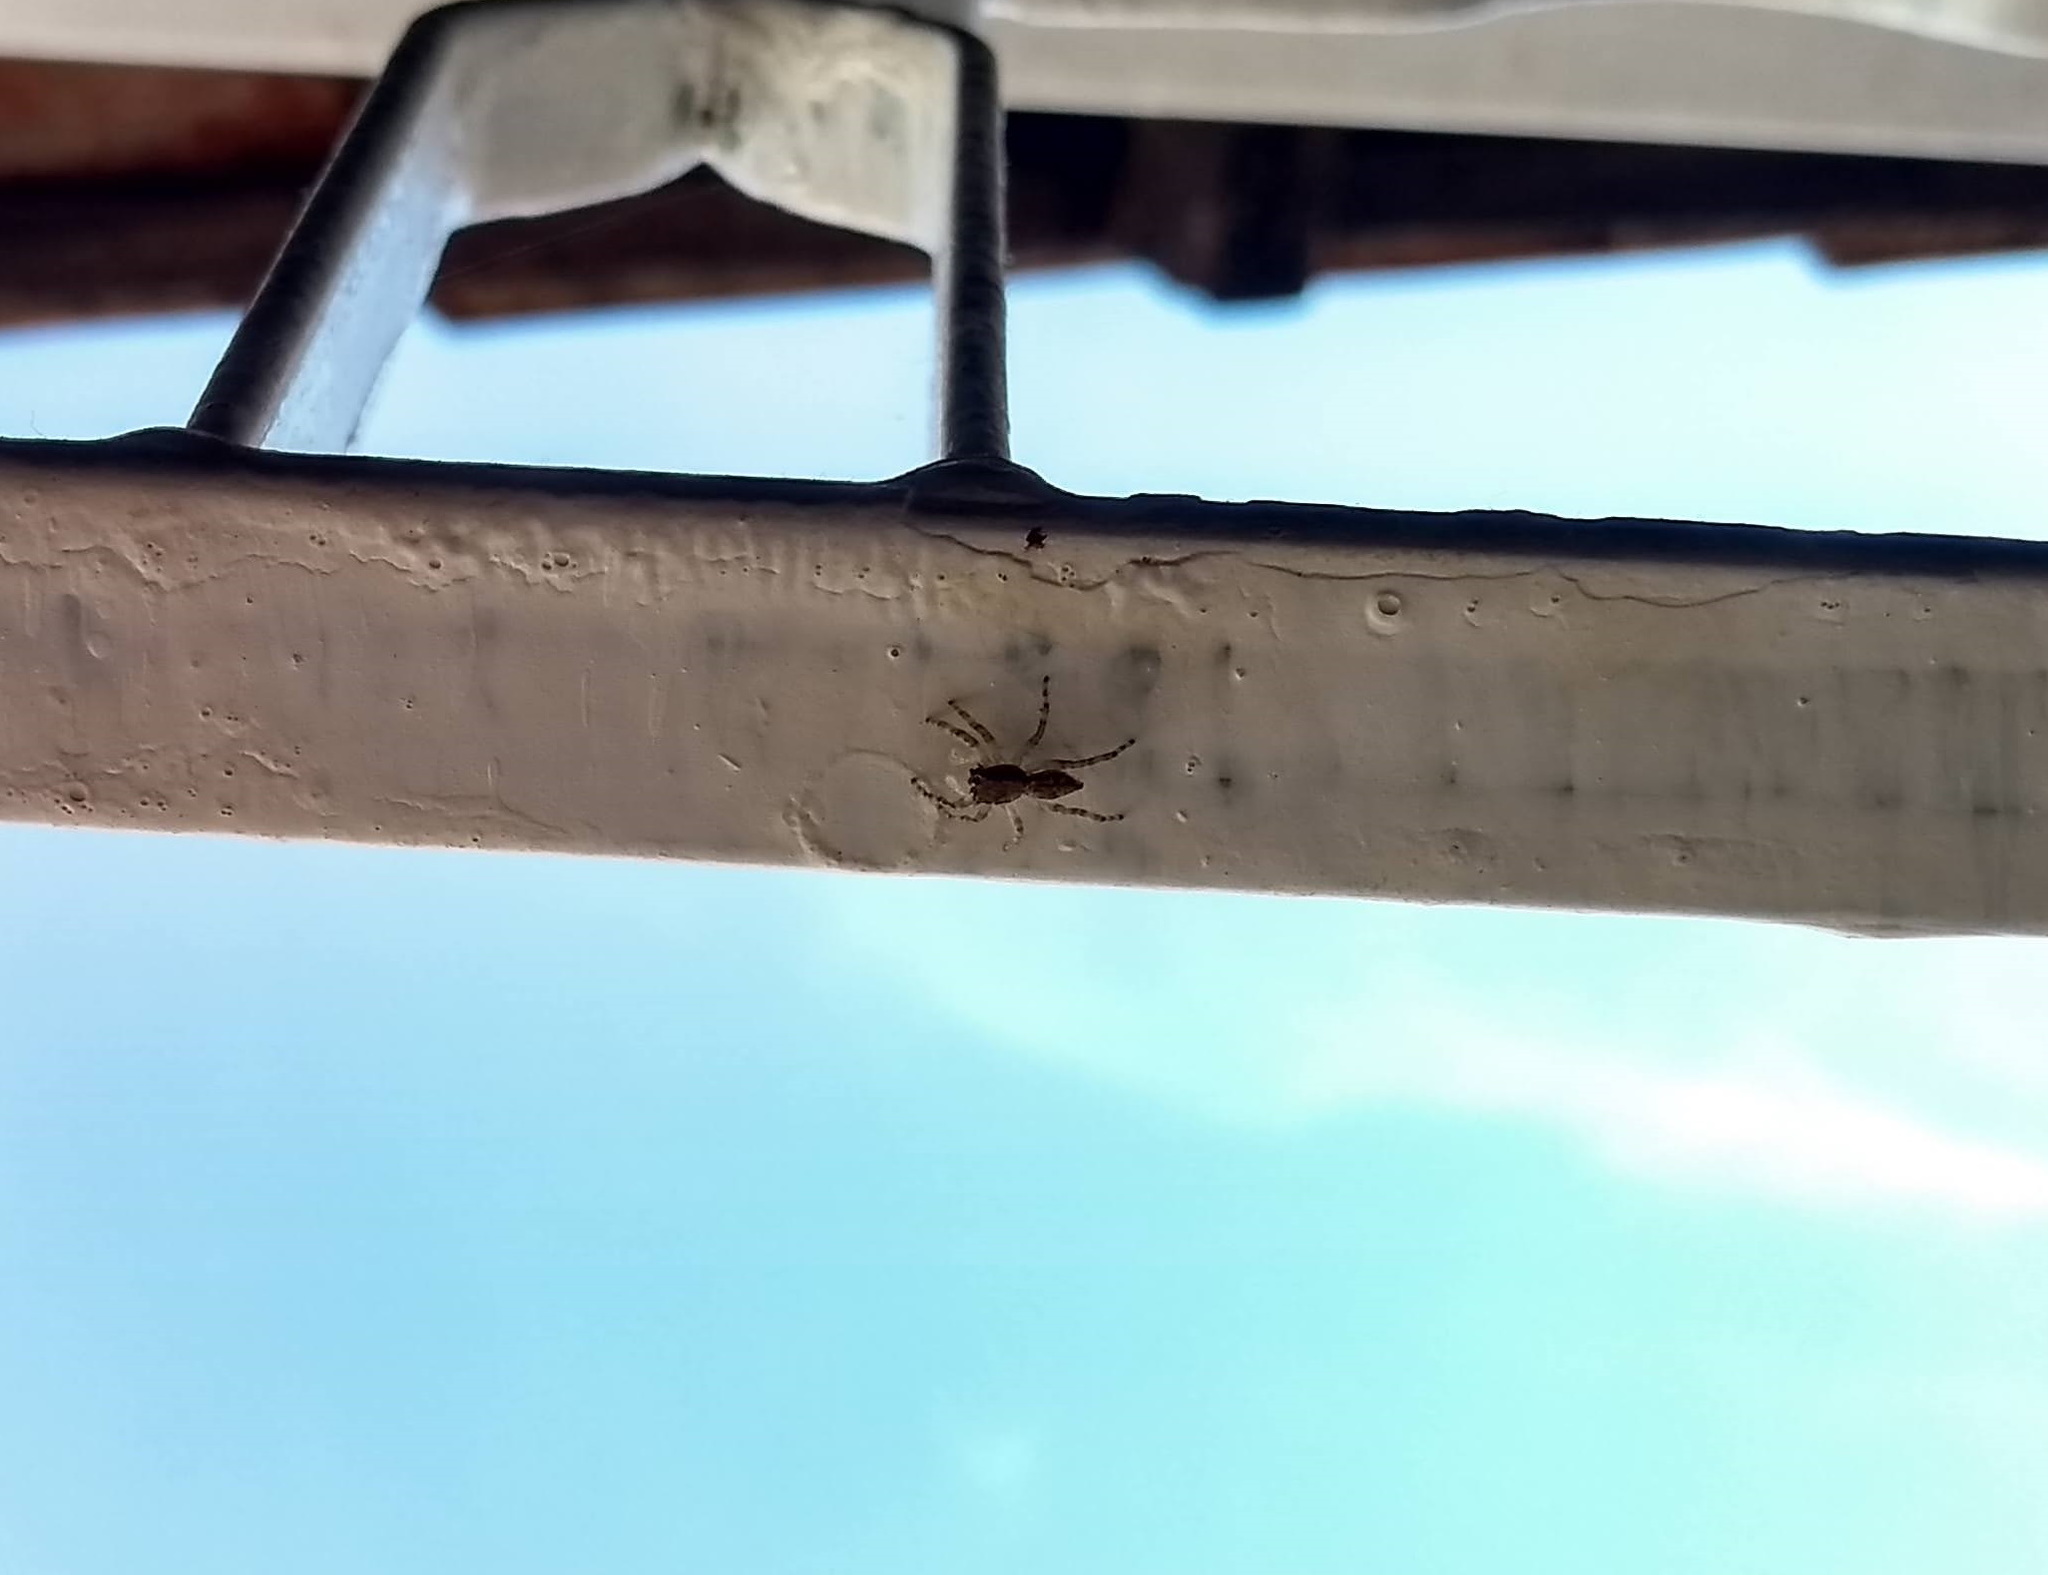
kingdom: Animalia
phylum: Arthropoda
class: Arachnida
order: Araneae
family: Salticidae
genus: Menemerus
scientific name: Menemerus bivittatus
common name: Gray wall jumper
